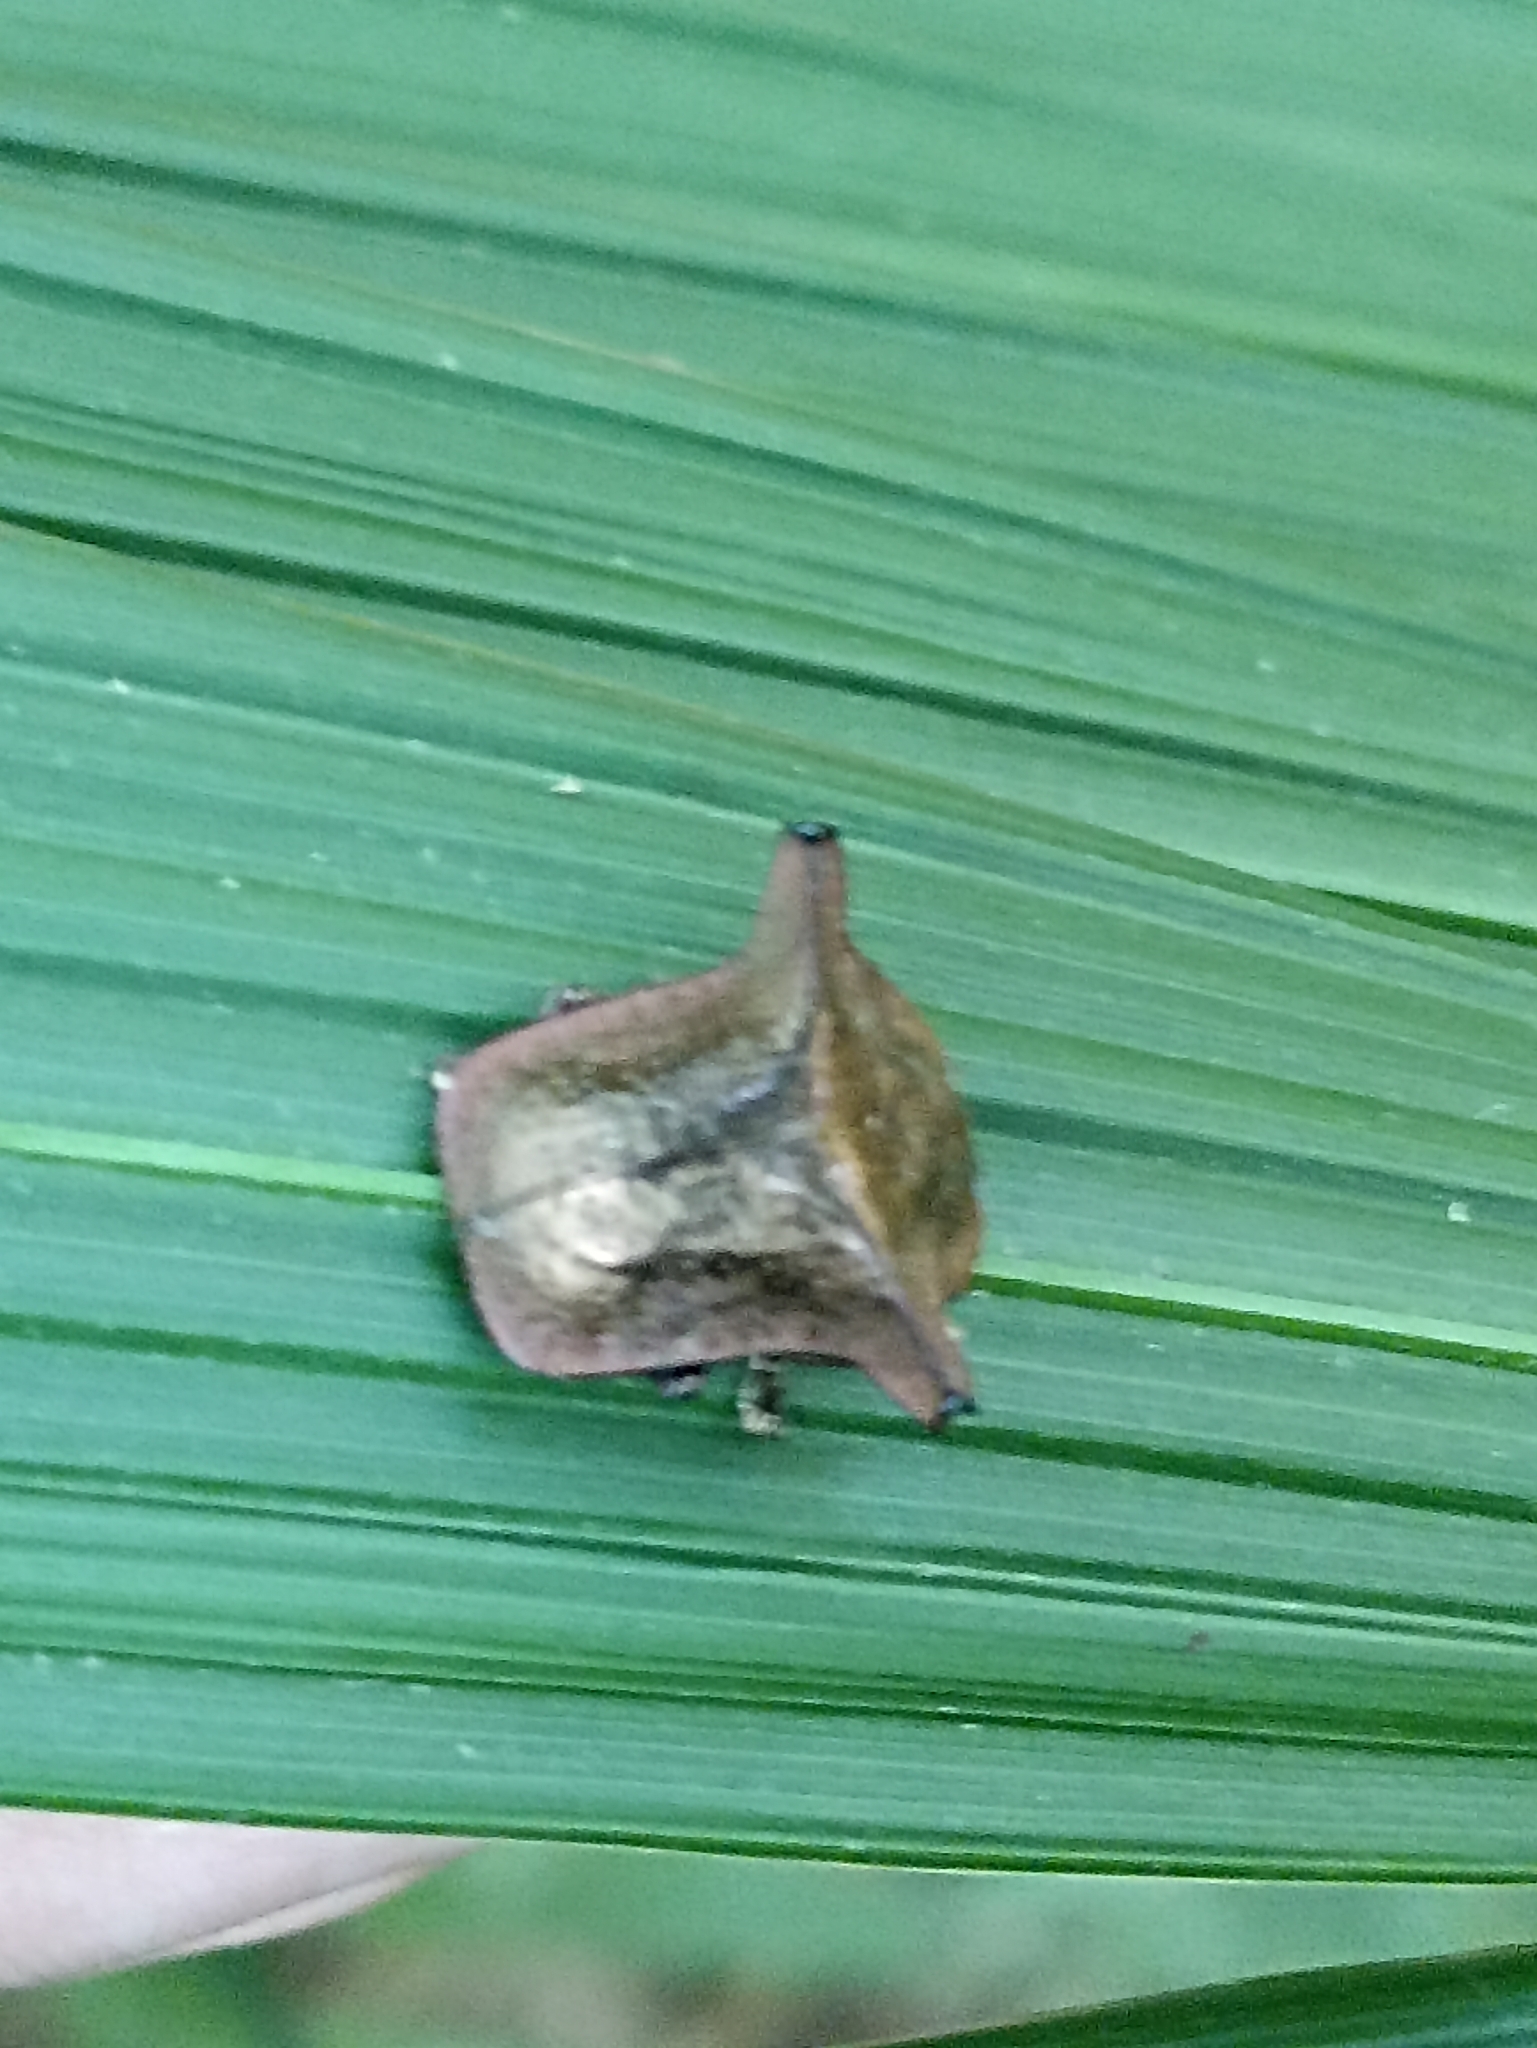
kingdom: Animalia
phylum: Arthropoda
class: Insecta
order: Coleoptera
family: Chrysomelidae
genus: Omocerus
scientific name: Omocerus truncatus
